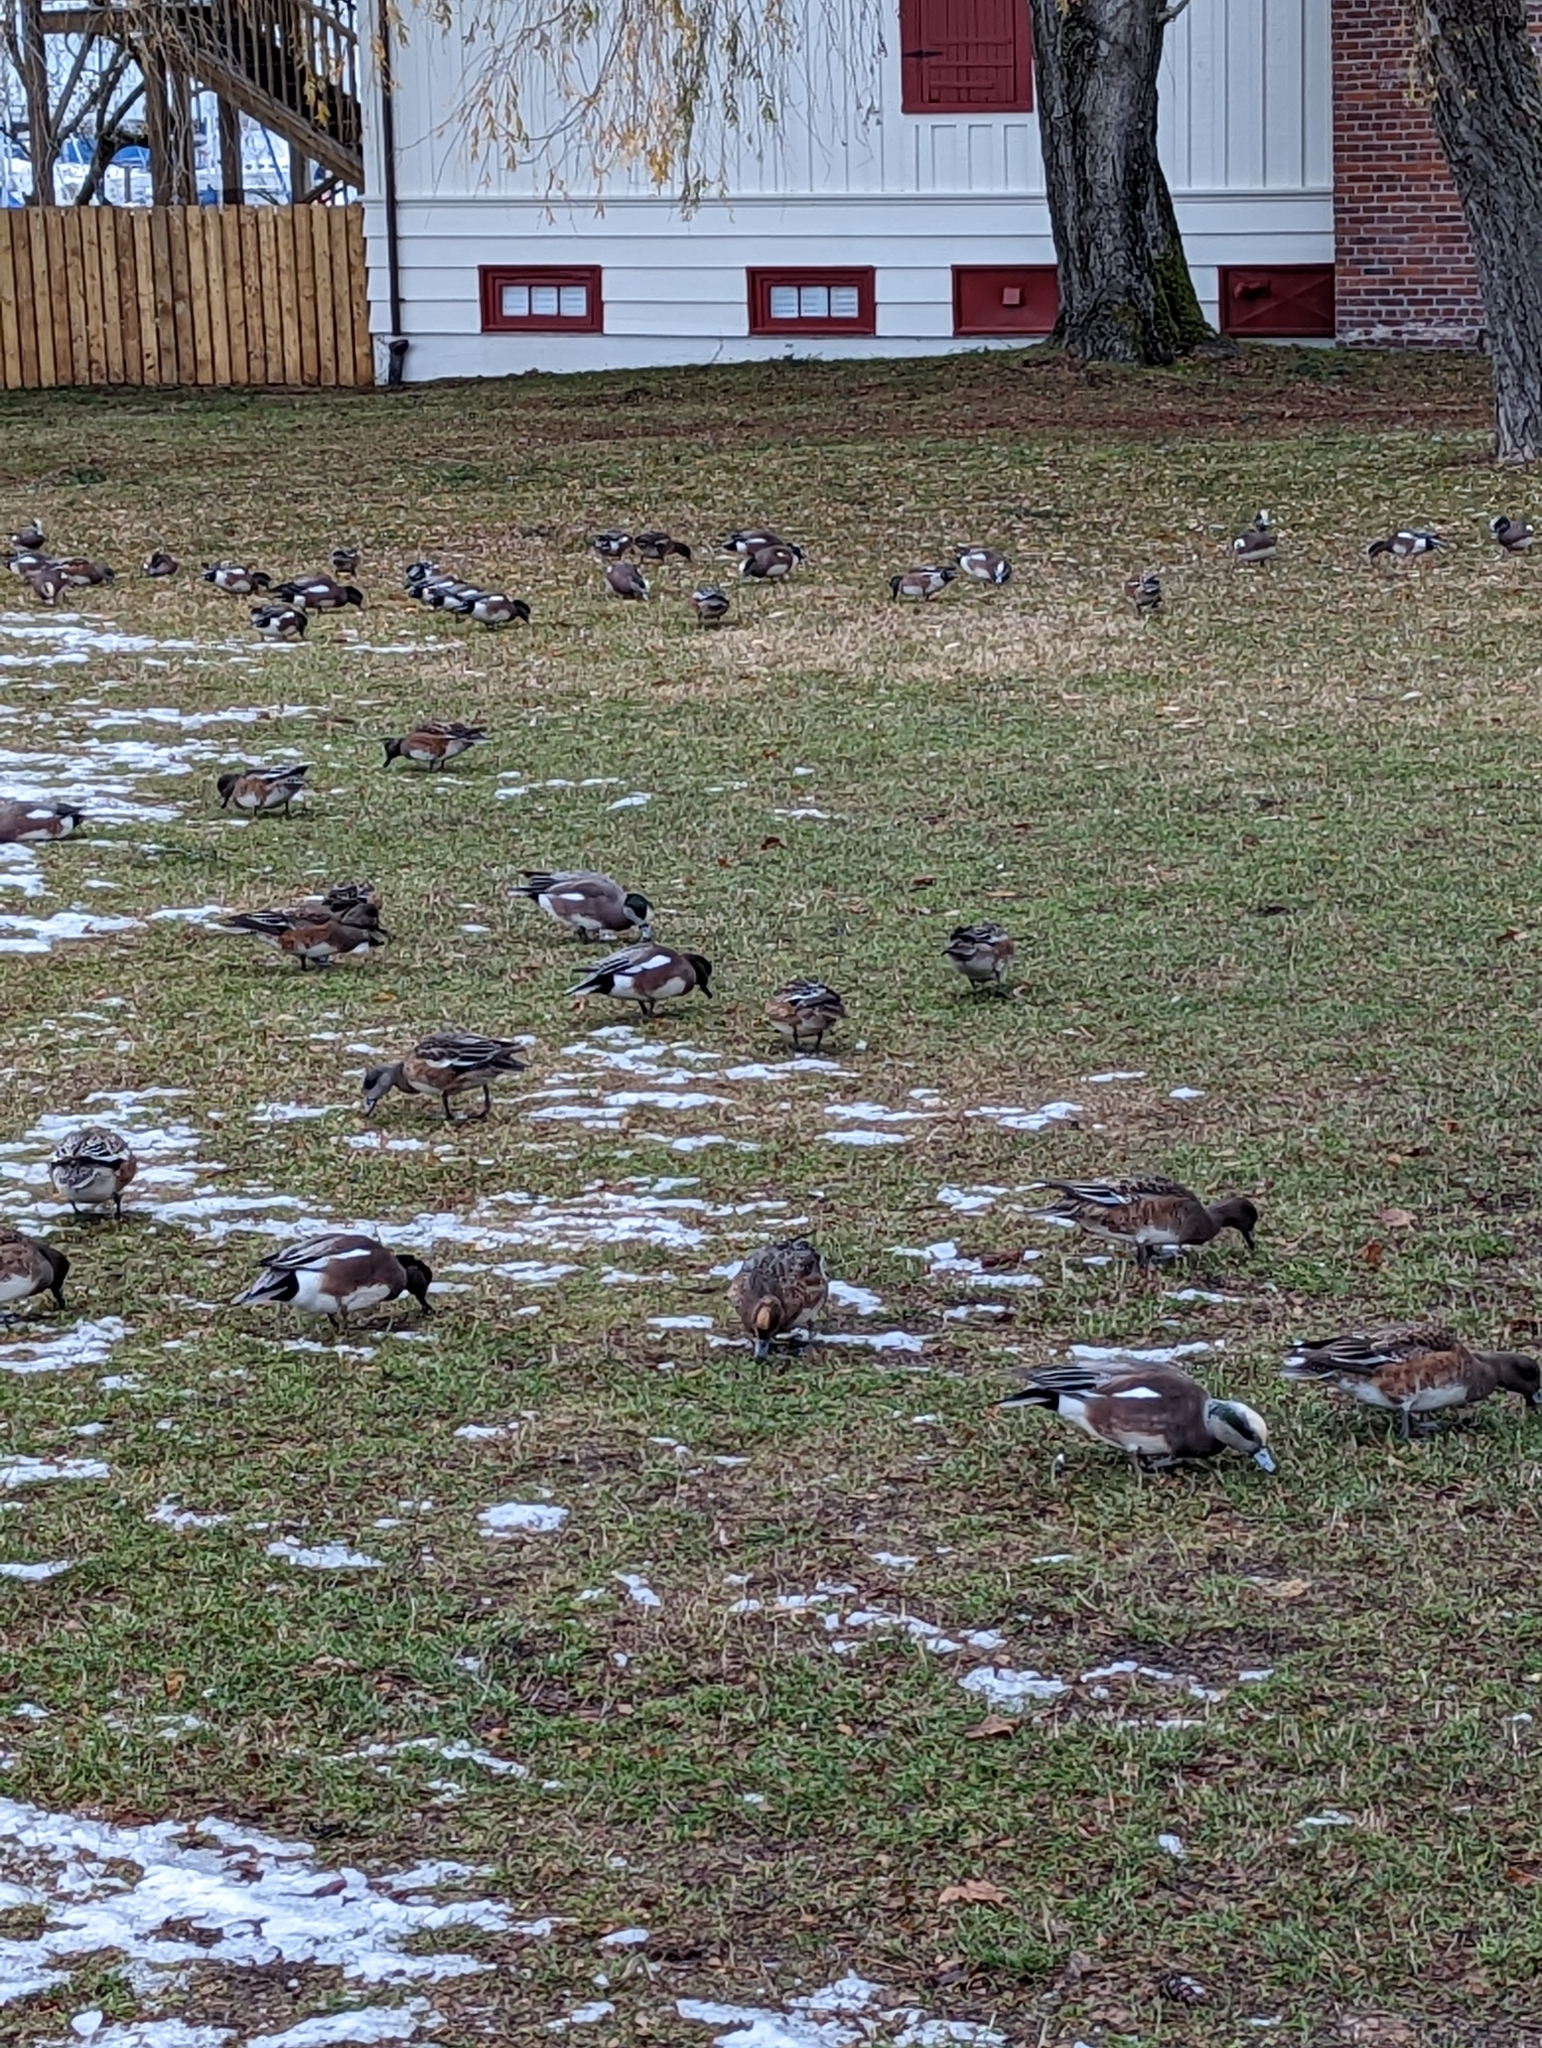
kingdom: Animalia
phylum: Chordata
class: Aves
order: Anseriformes
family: Anatidae
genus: Mareca
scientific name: Mareca americana
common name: American wigeon
